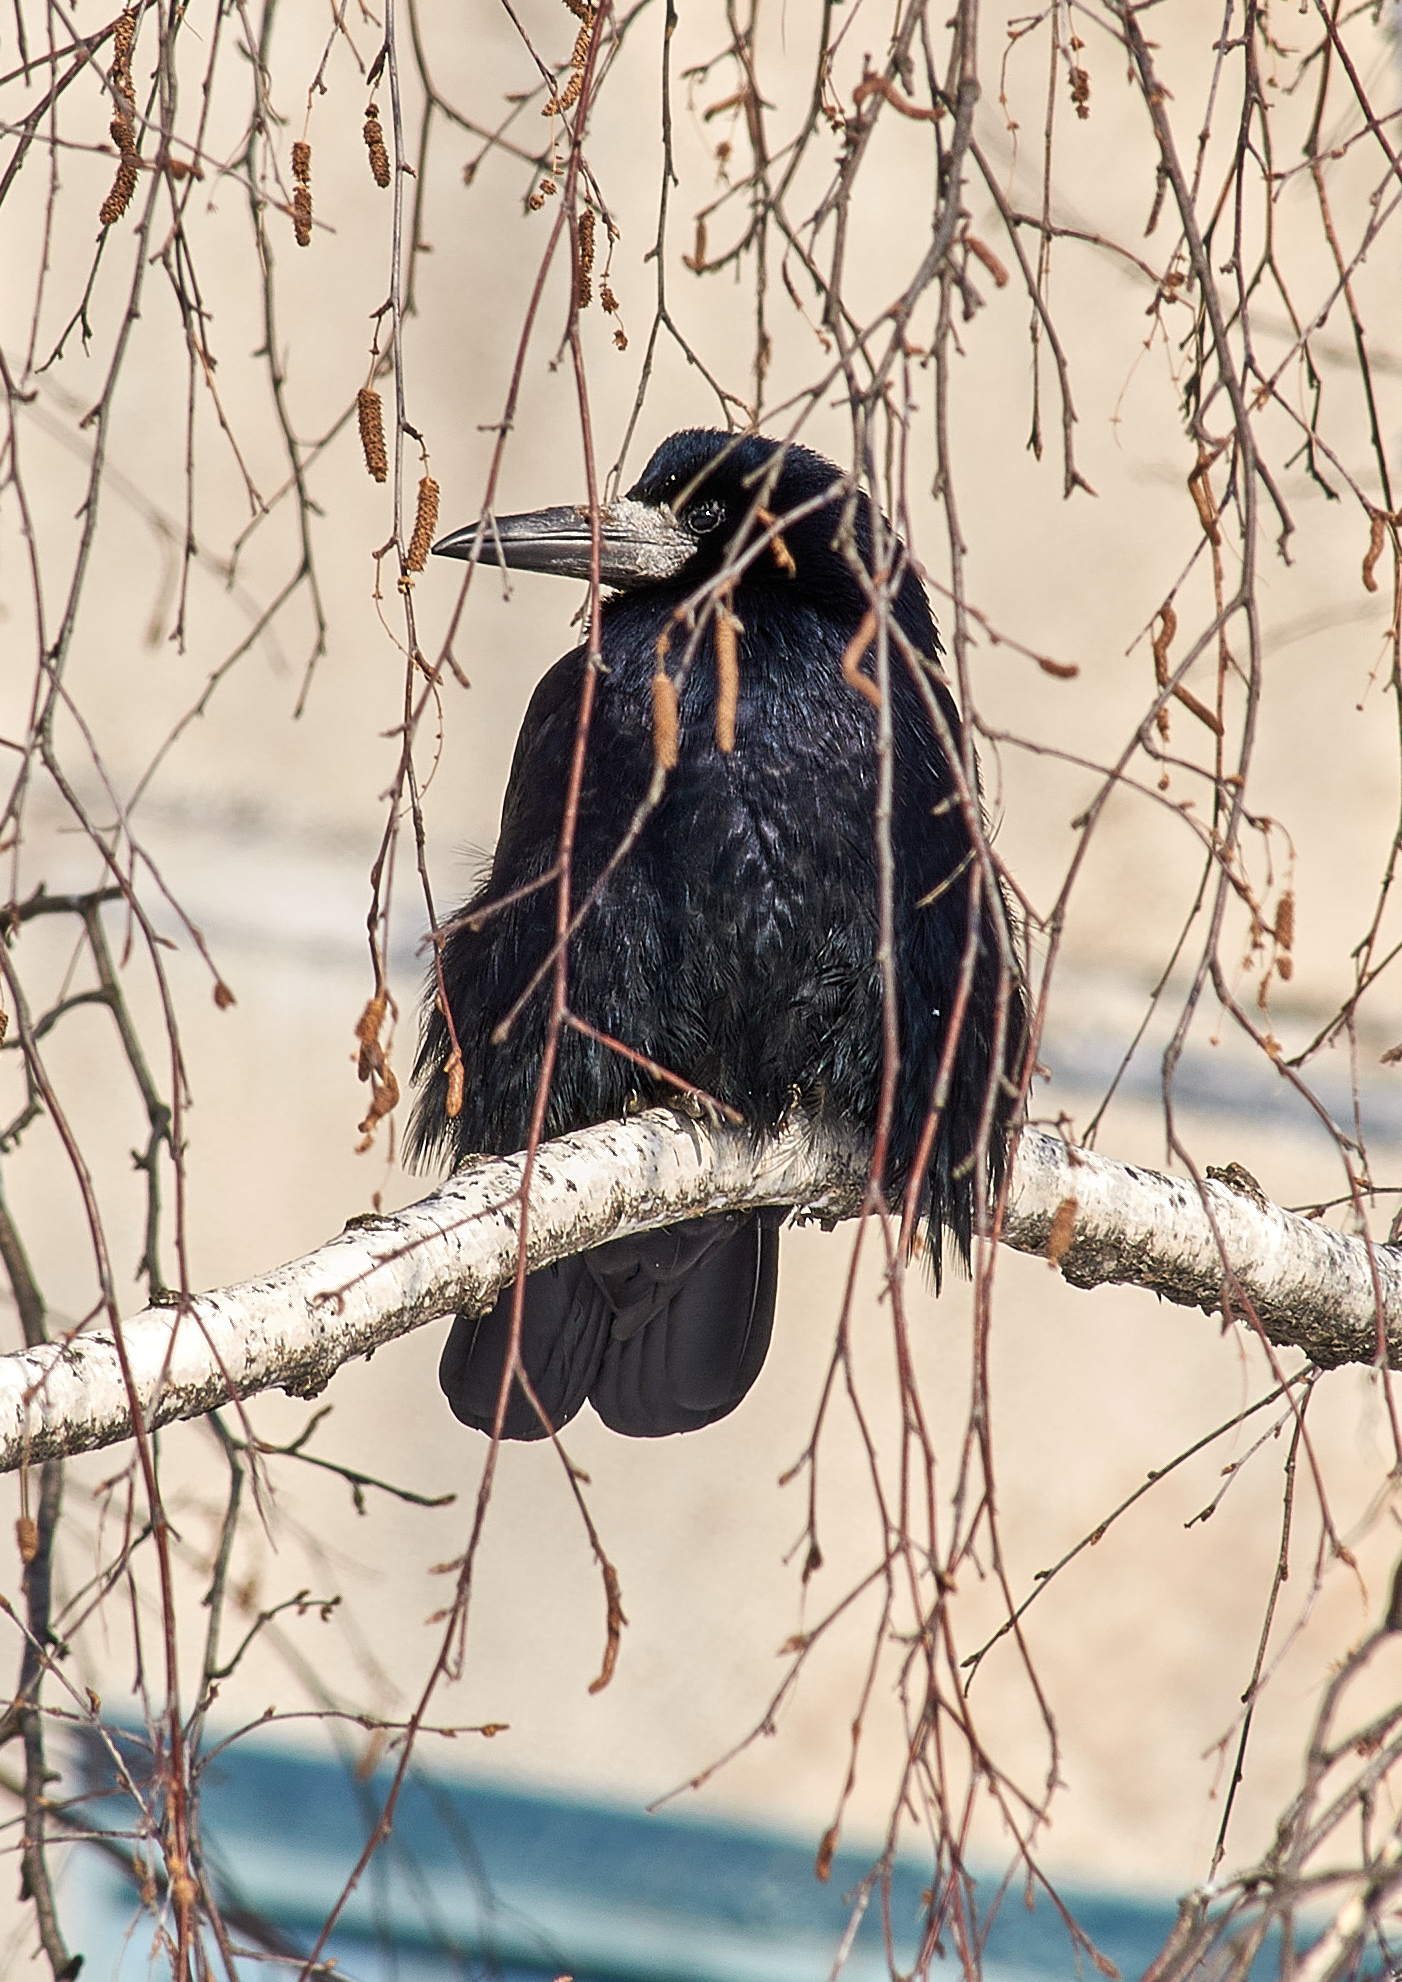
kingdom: Animalia
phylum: Chordata
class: Aves
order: Passeriformes
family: Corvidae
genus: Corvus
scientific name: Corvus frugilegus
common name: Rook
